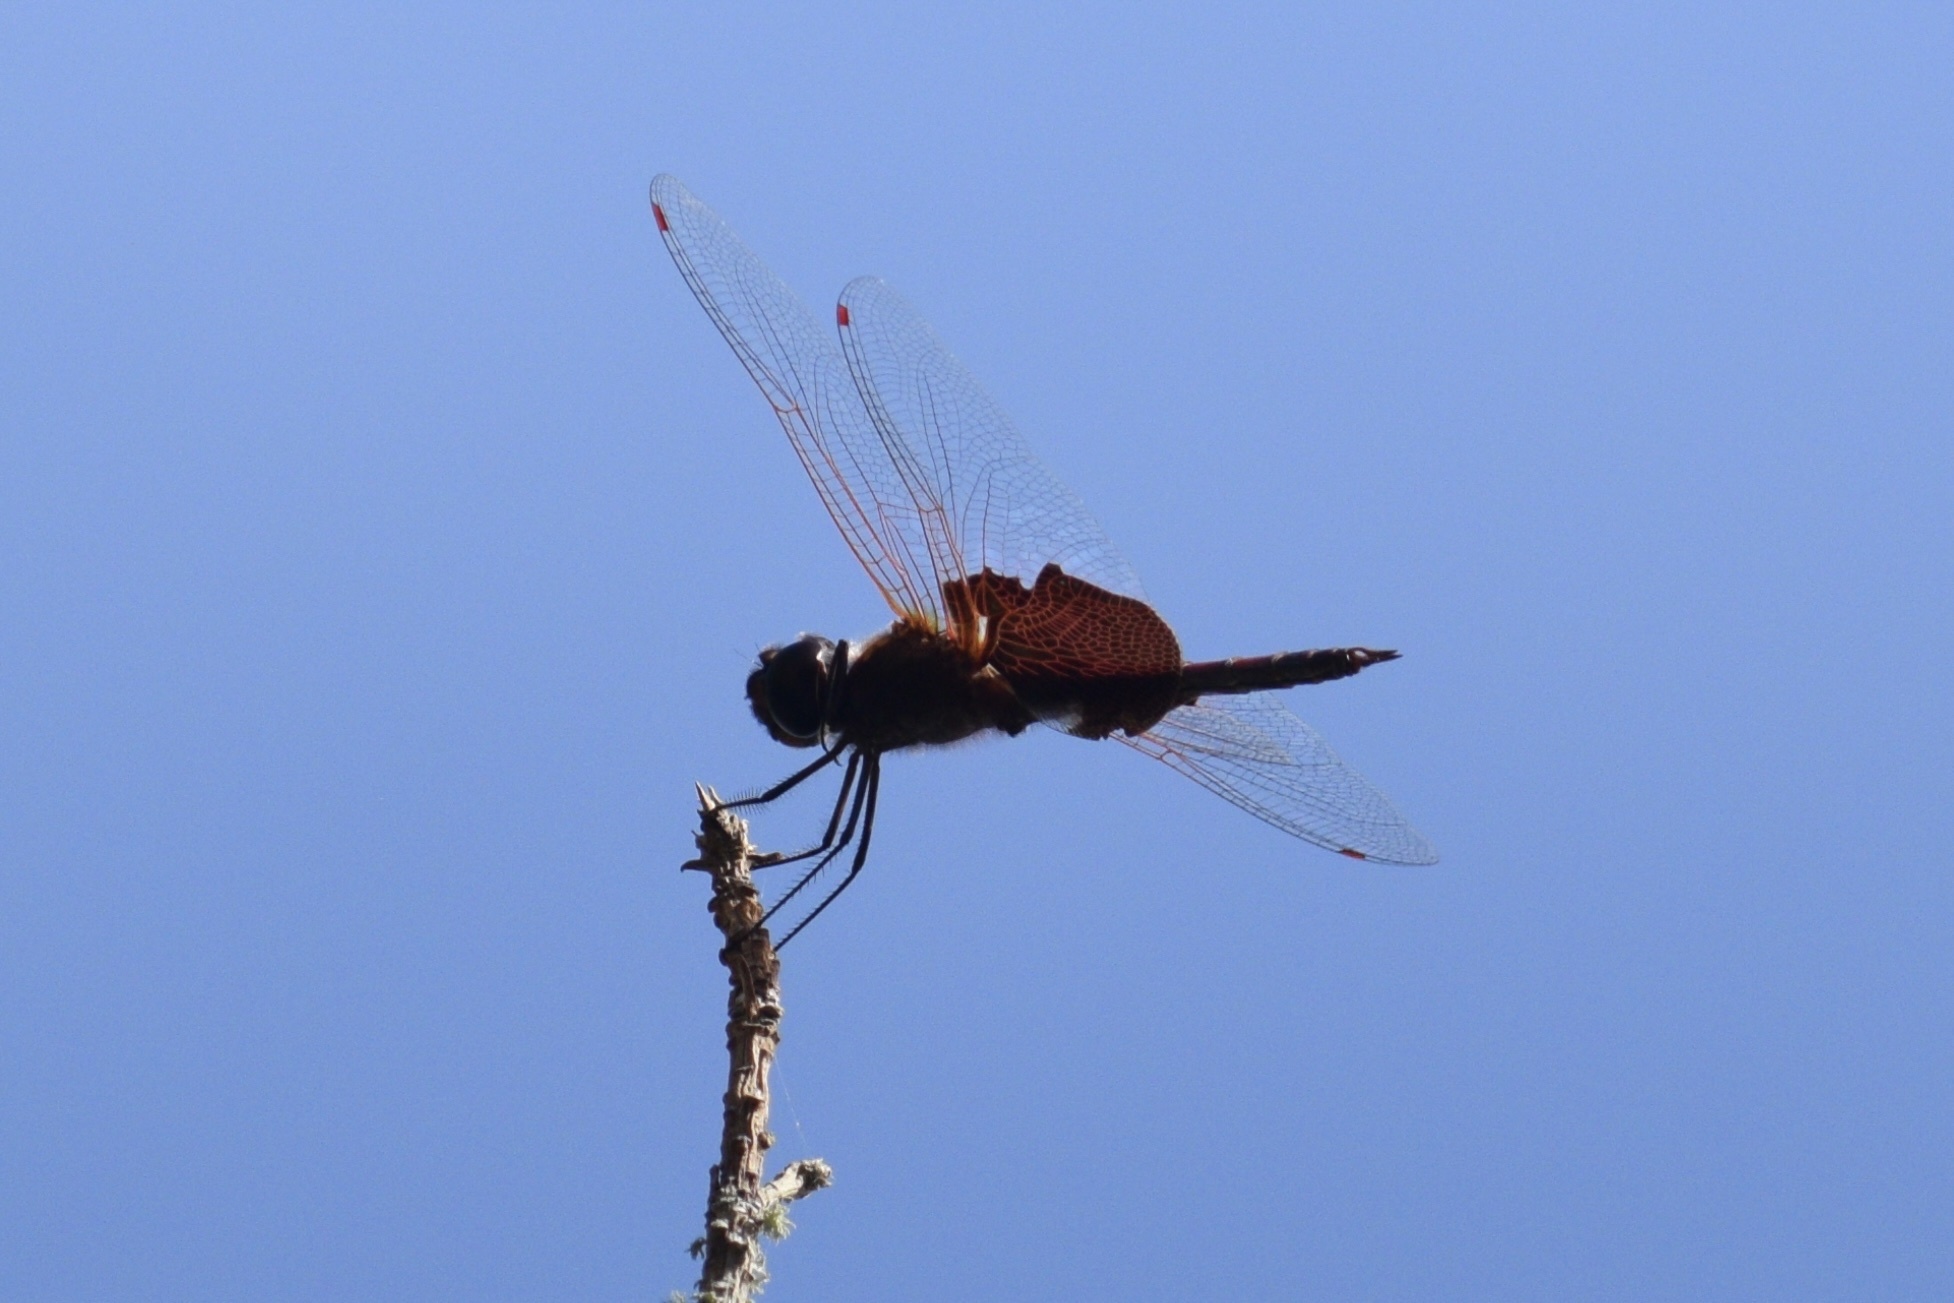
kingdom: Animalia
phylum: Arthropoda
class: Insecta
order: Odonata
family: Libellulidae
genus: Tramea
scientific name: Tramea carolina
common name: Carolina saddlebags
